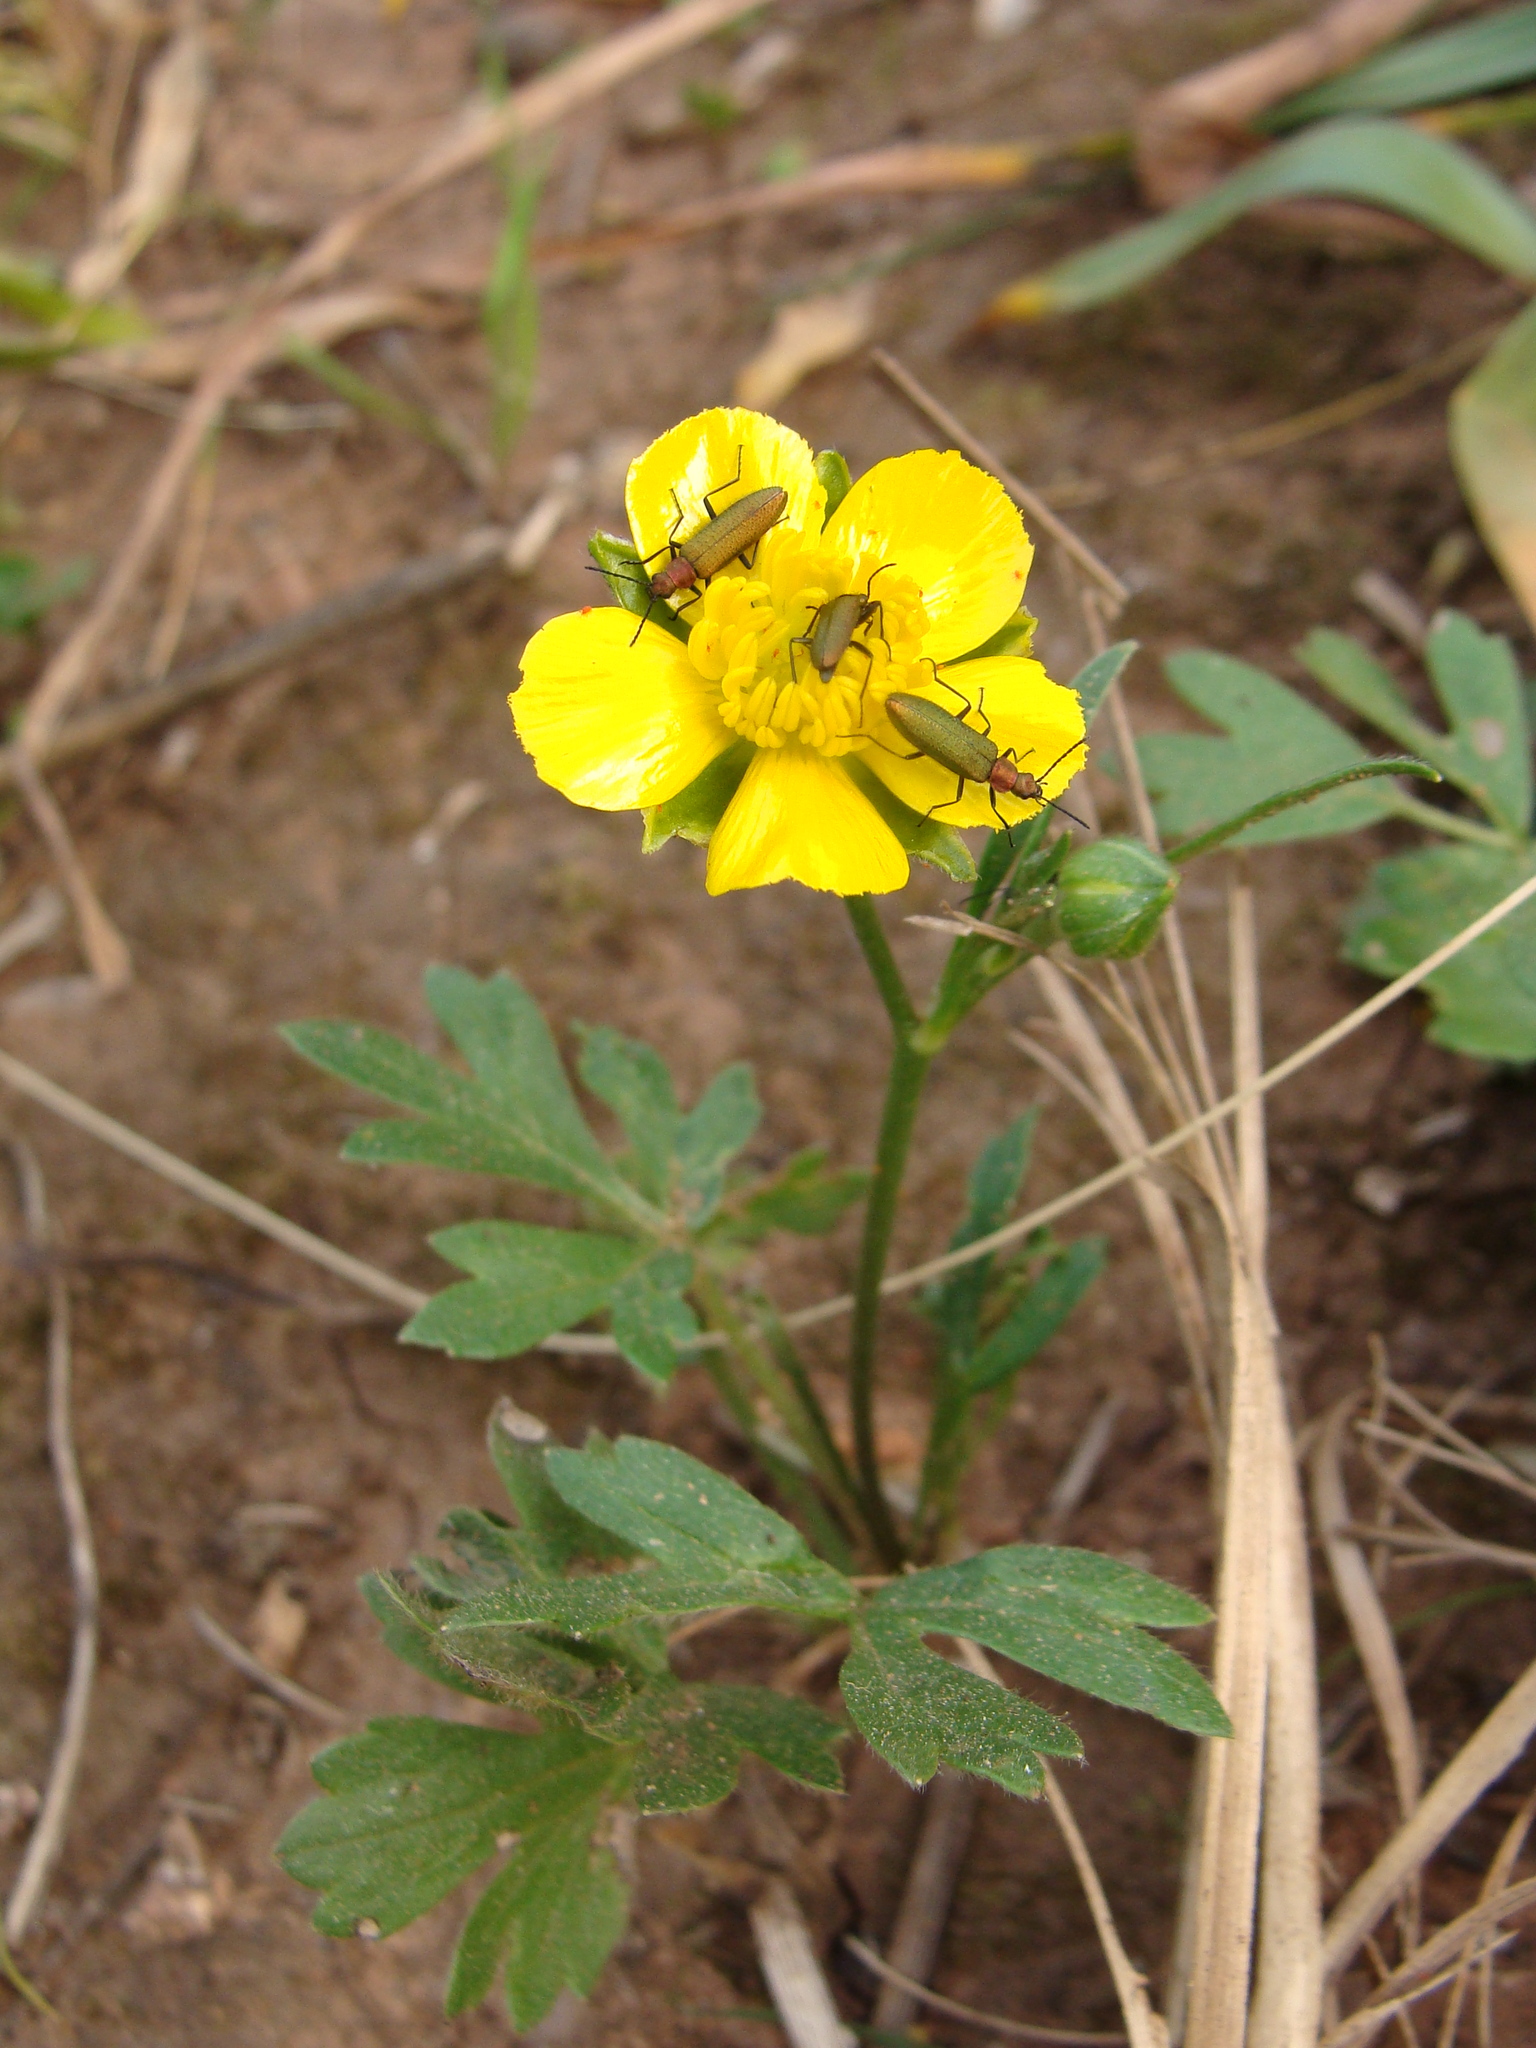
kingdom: Animalia
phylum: Arthropoda
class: Insecta
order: Coleoptera
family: Stenotrachelidae
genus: Stenotrachelus
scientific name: Stenotrachelus aeneus
